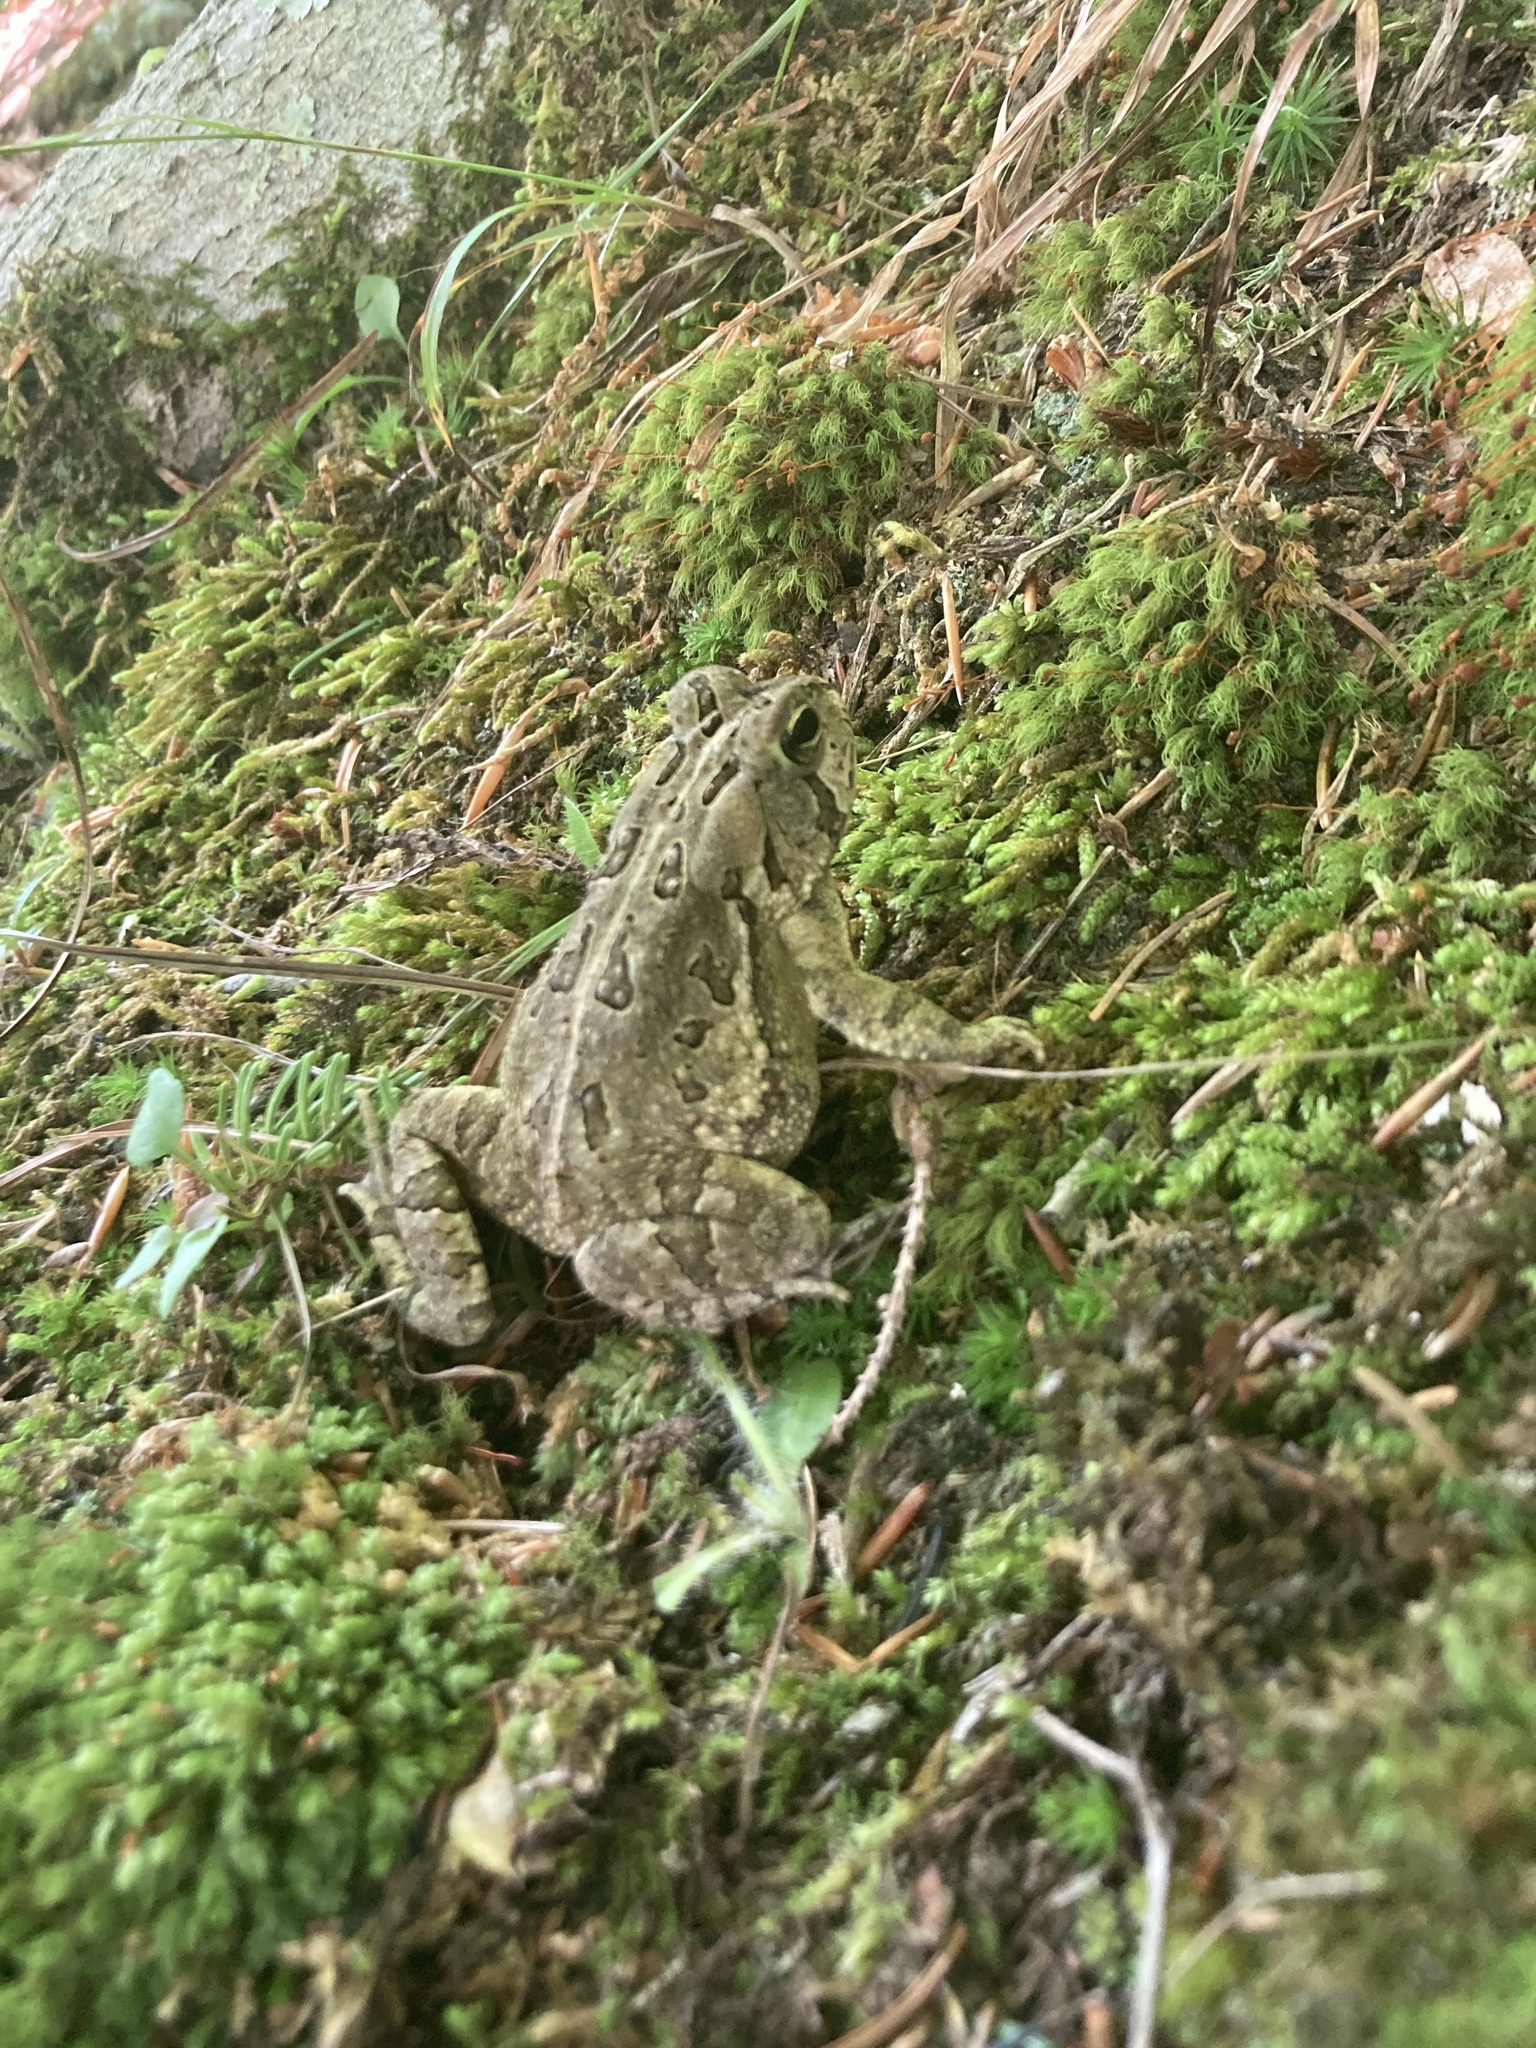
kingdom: Animalia
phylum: Chordata
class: Amphibia
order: Anura
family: Bufonidae
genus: Anaxyrus
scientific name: Anaxyrus fowleri
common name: Fowler's toad
